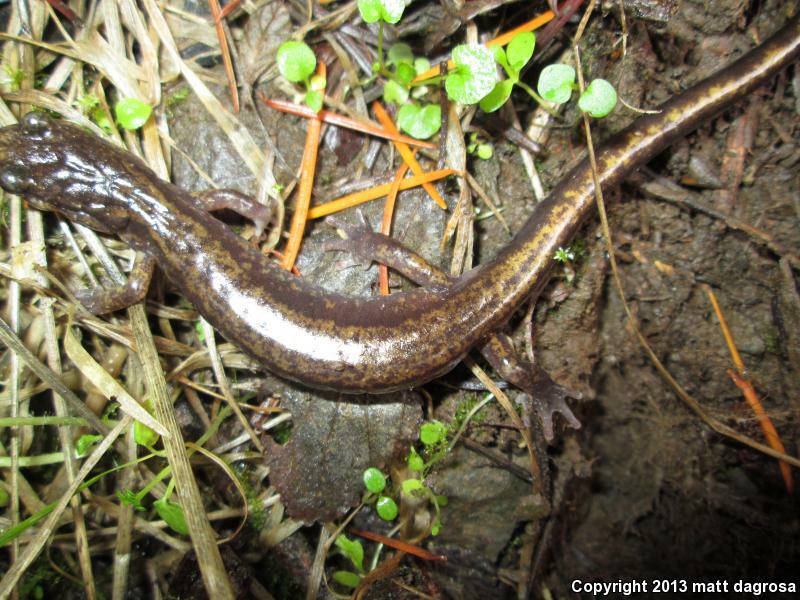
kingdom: Animalia
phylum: Chordata
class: Amphibia
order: Caudata
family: Plethodontidae
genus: Plethodon
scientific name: Plethodon dunni
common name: Dunn's salamander
